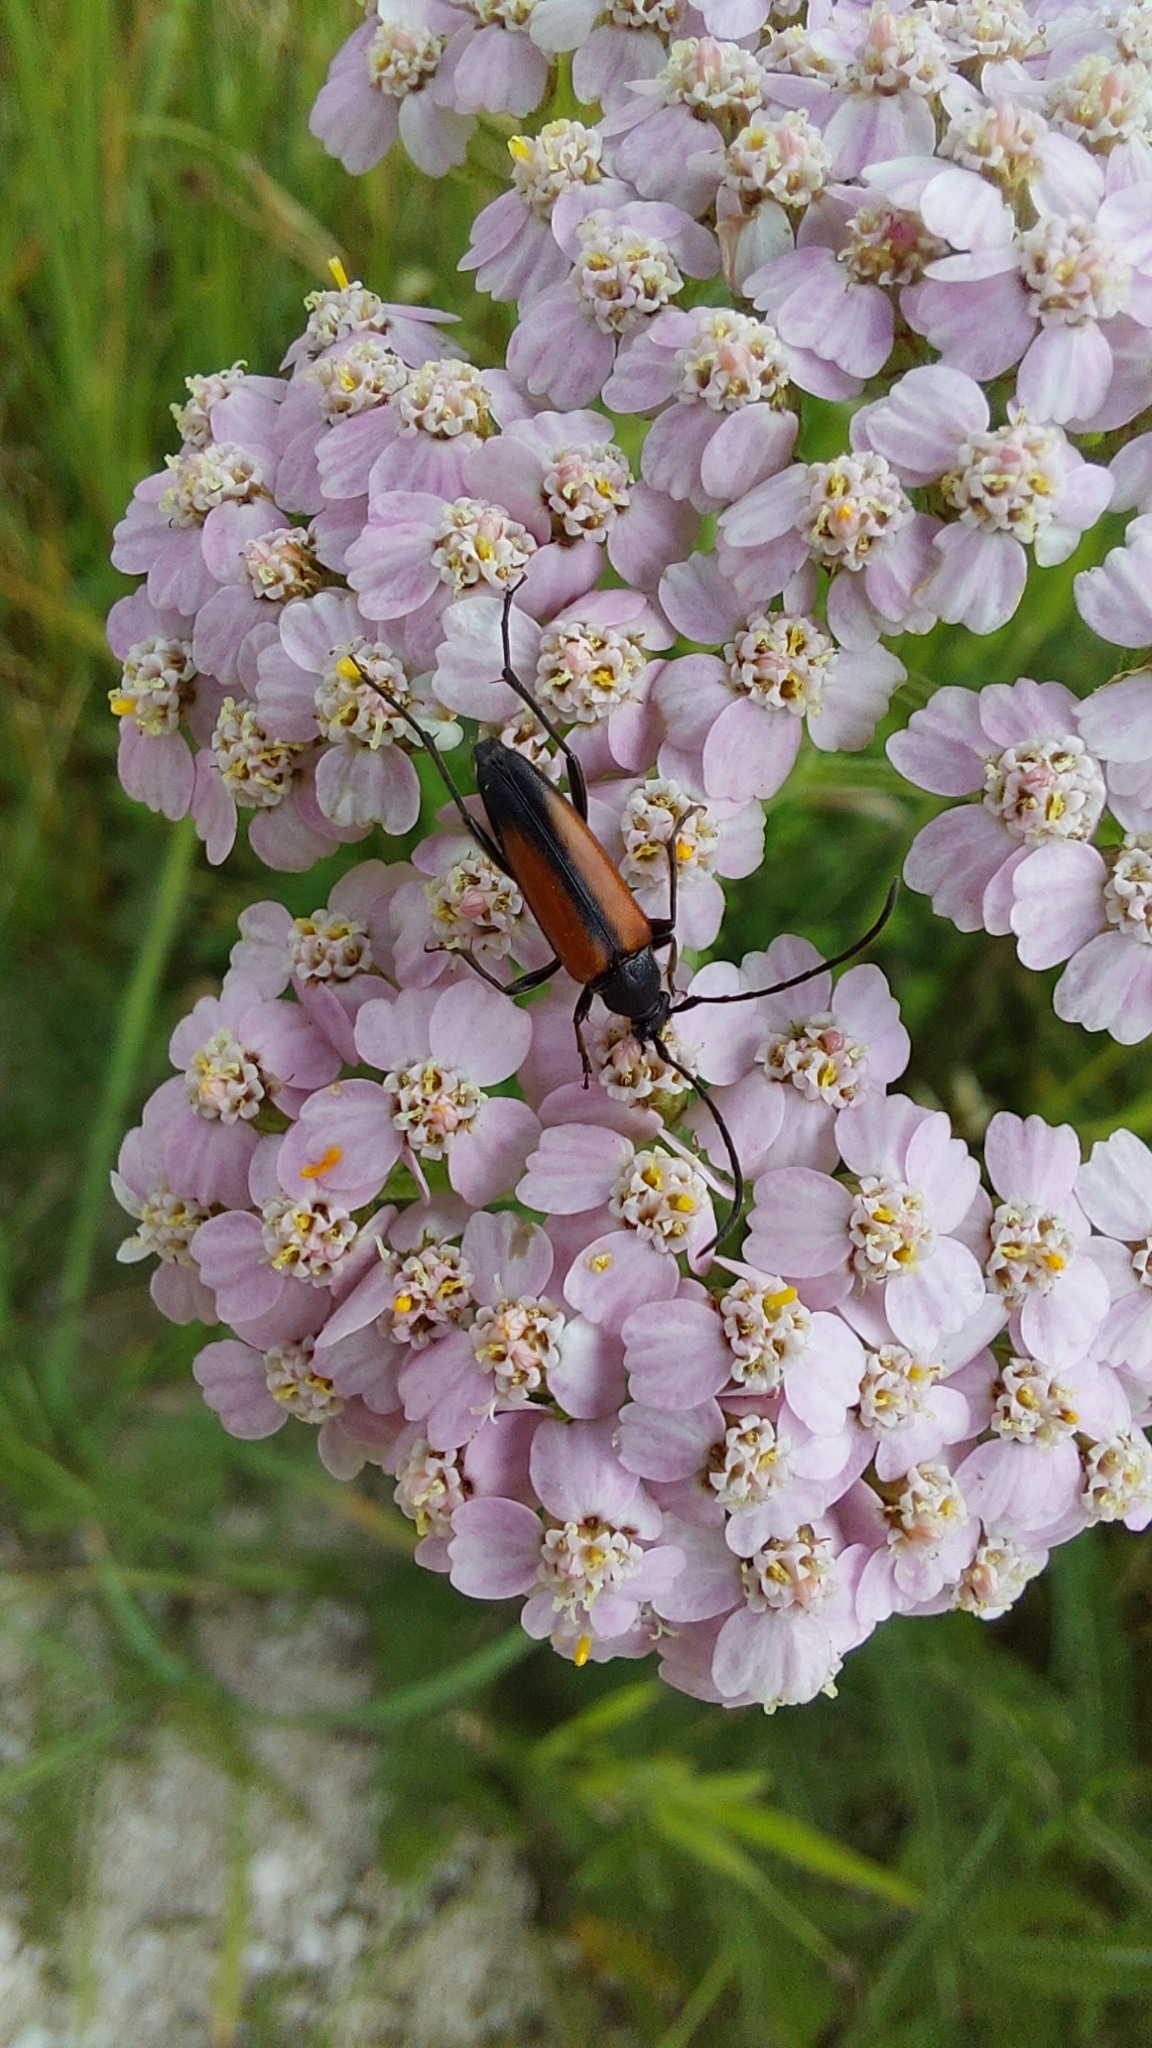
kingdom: Animalia
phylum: Arthropoda
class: Insecta
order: Coleoptera
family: Cerambycidae
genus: Stenurella
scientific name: Stenurella melanura
